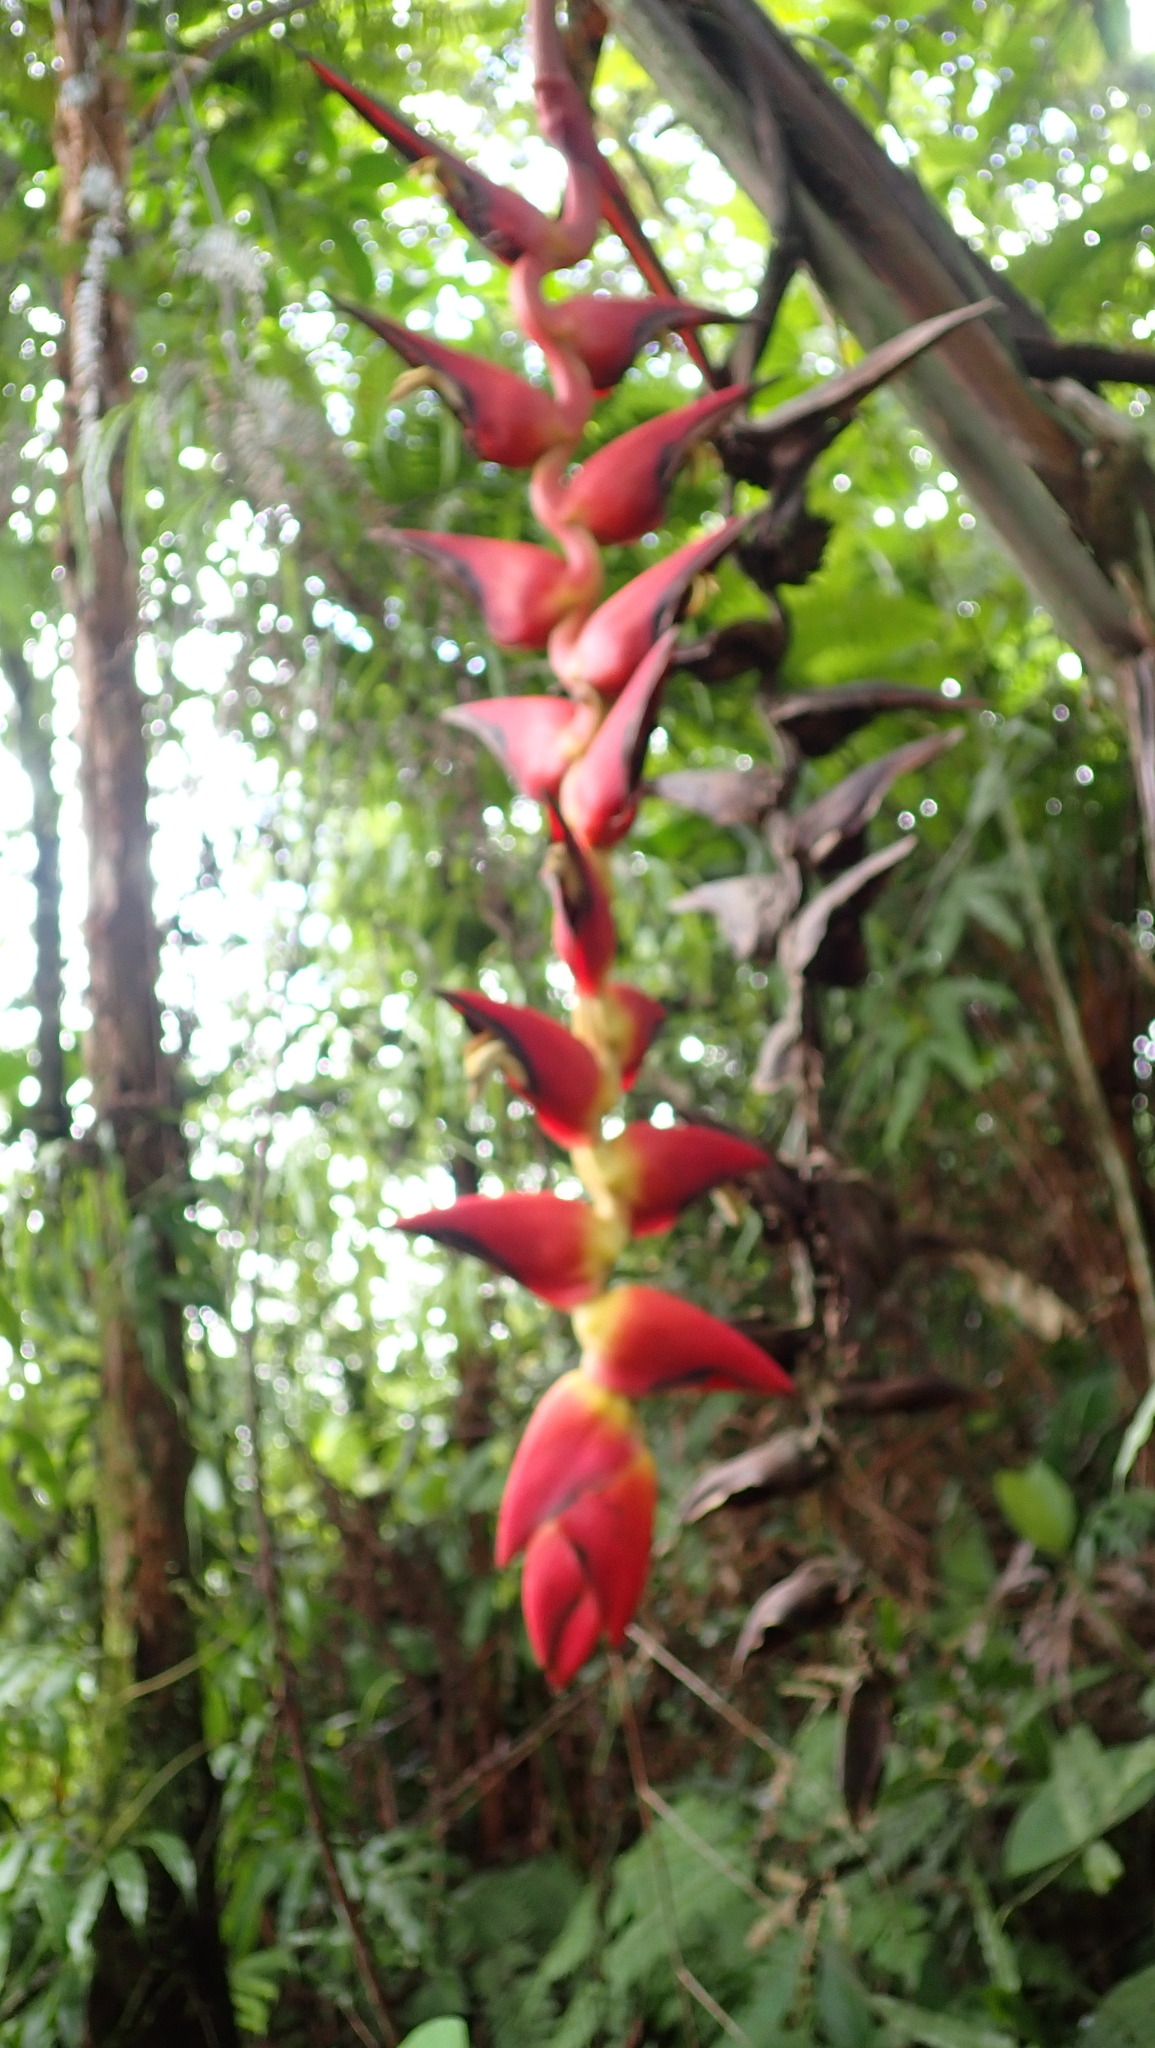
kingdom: Plantae
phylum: Tracheophyta
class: Liliopsida
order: Zingiberales
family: Heliconiaceae
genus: Heliconia
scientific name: Heliconia pogonantha
